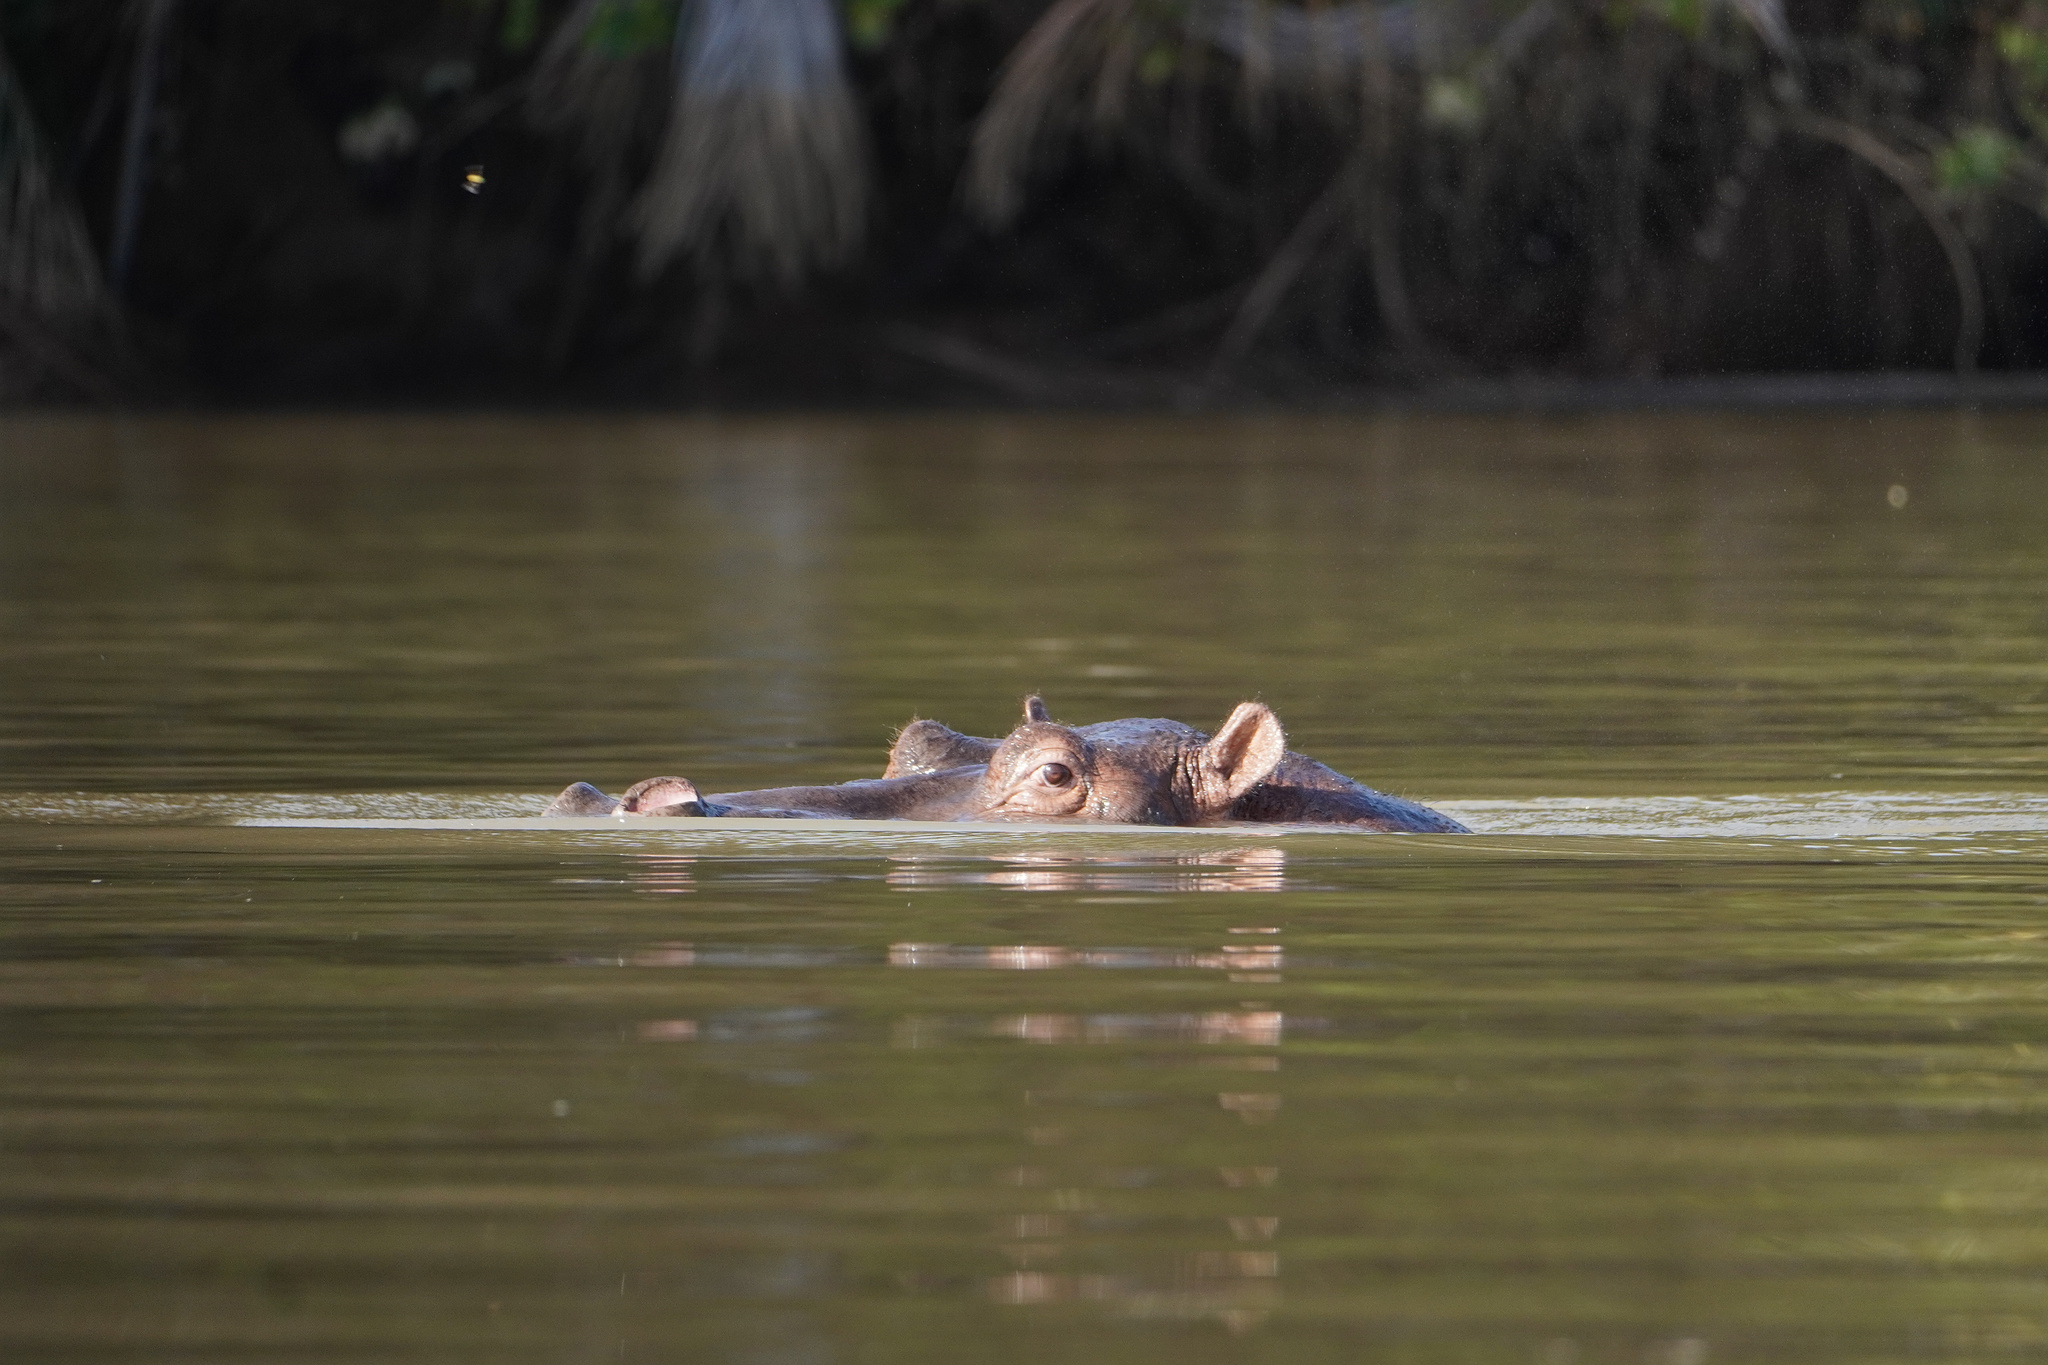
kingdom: Animalia
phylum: Chordata
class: Mammalia
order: Artiodactyla
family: Hippopotamidae
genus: Hippopotamus
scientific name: Hippopotamus amphibius
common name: Common hippopotamus
